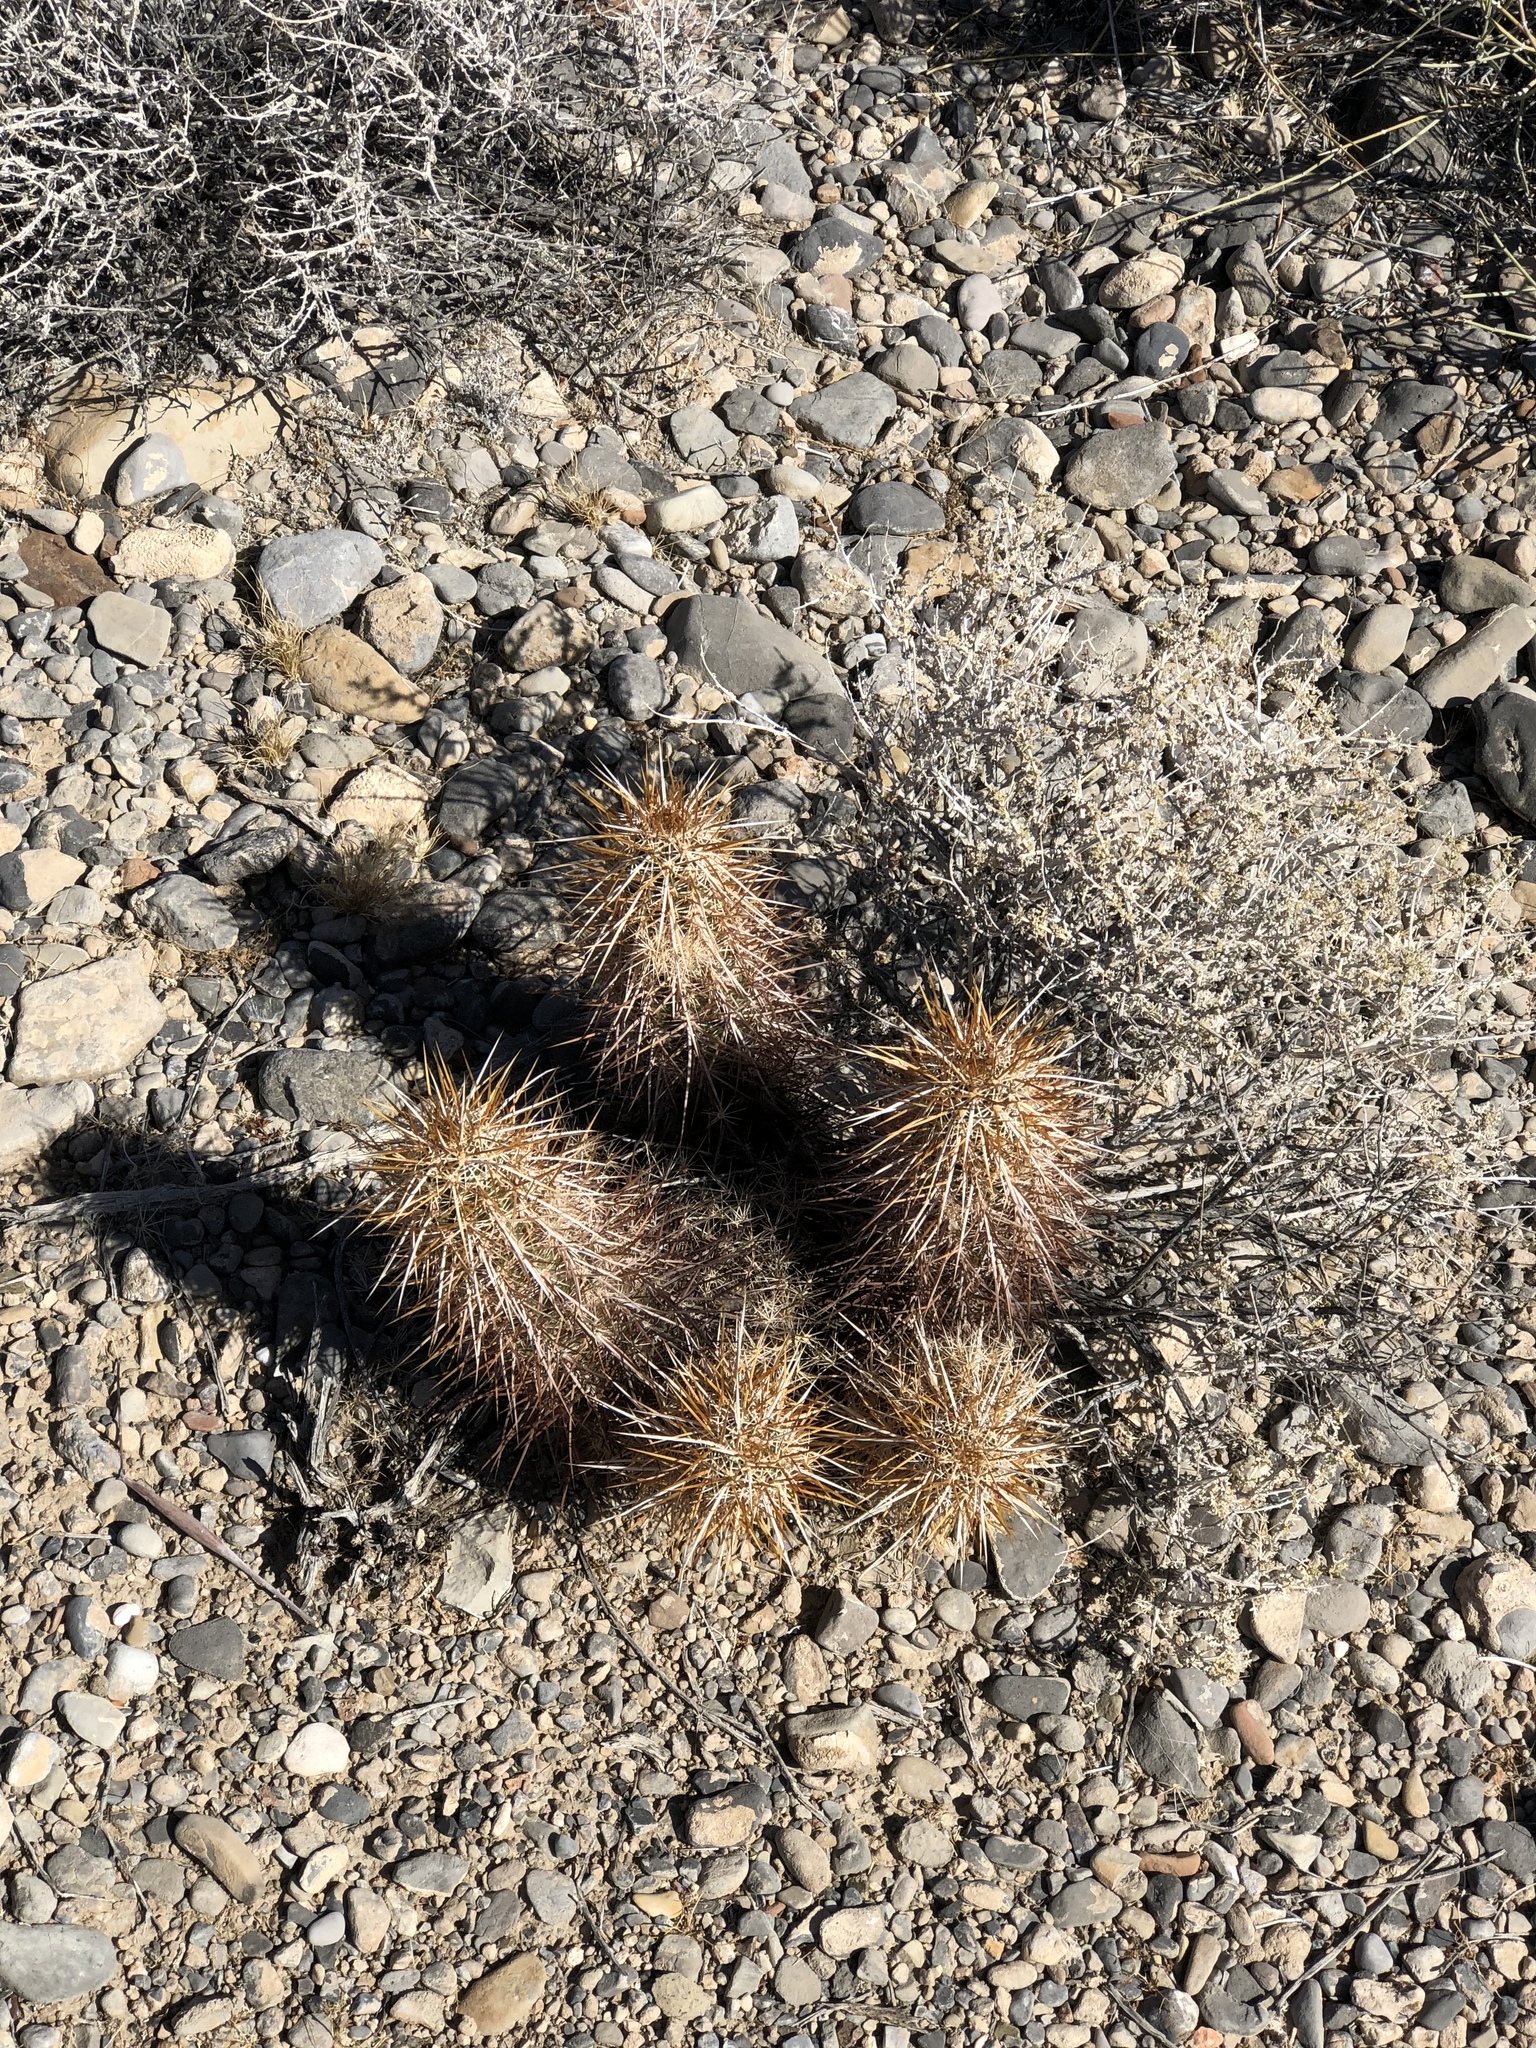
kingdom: Plantae
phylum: Tracheophyta
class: Magnoliopsida
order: Caryophyllales
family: Cactaceae
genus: Echinocereus
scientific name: Echinocereus engelmannii
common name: Engelmann's hedgehog cactus
